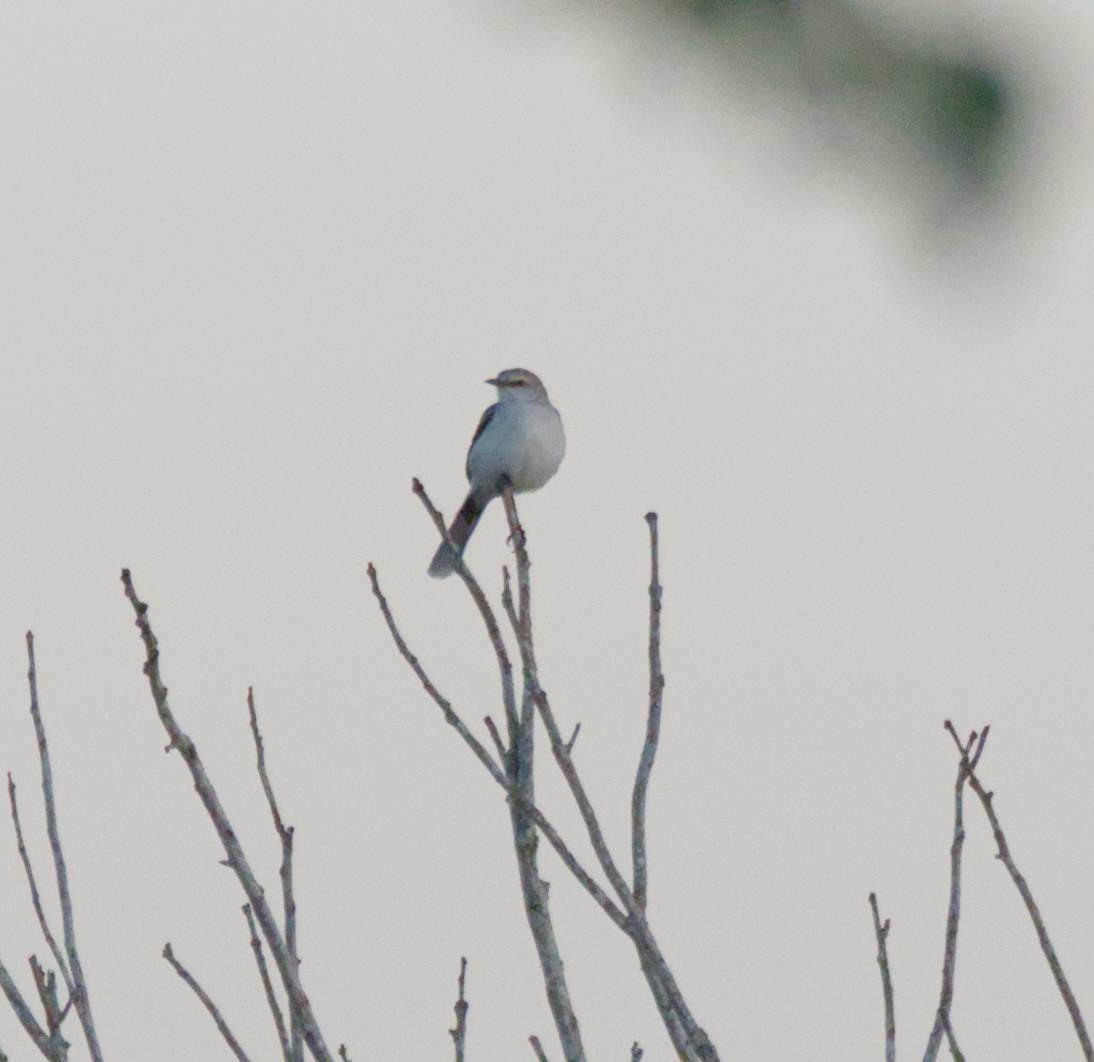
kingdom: Animalia
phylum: Chordata
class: Aves
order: Passeriformes
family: Mimidae
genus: Mimus
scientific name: Mimus gilvus
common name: Tropical mockingbird
